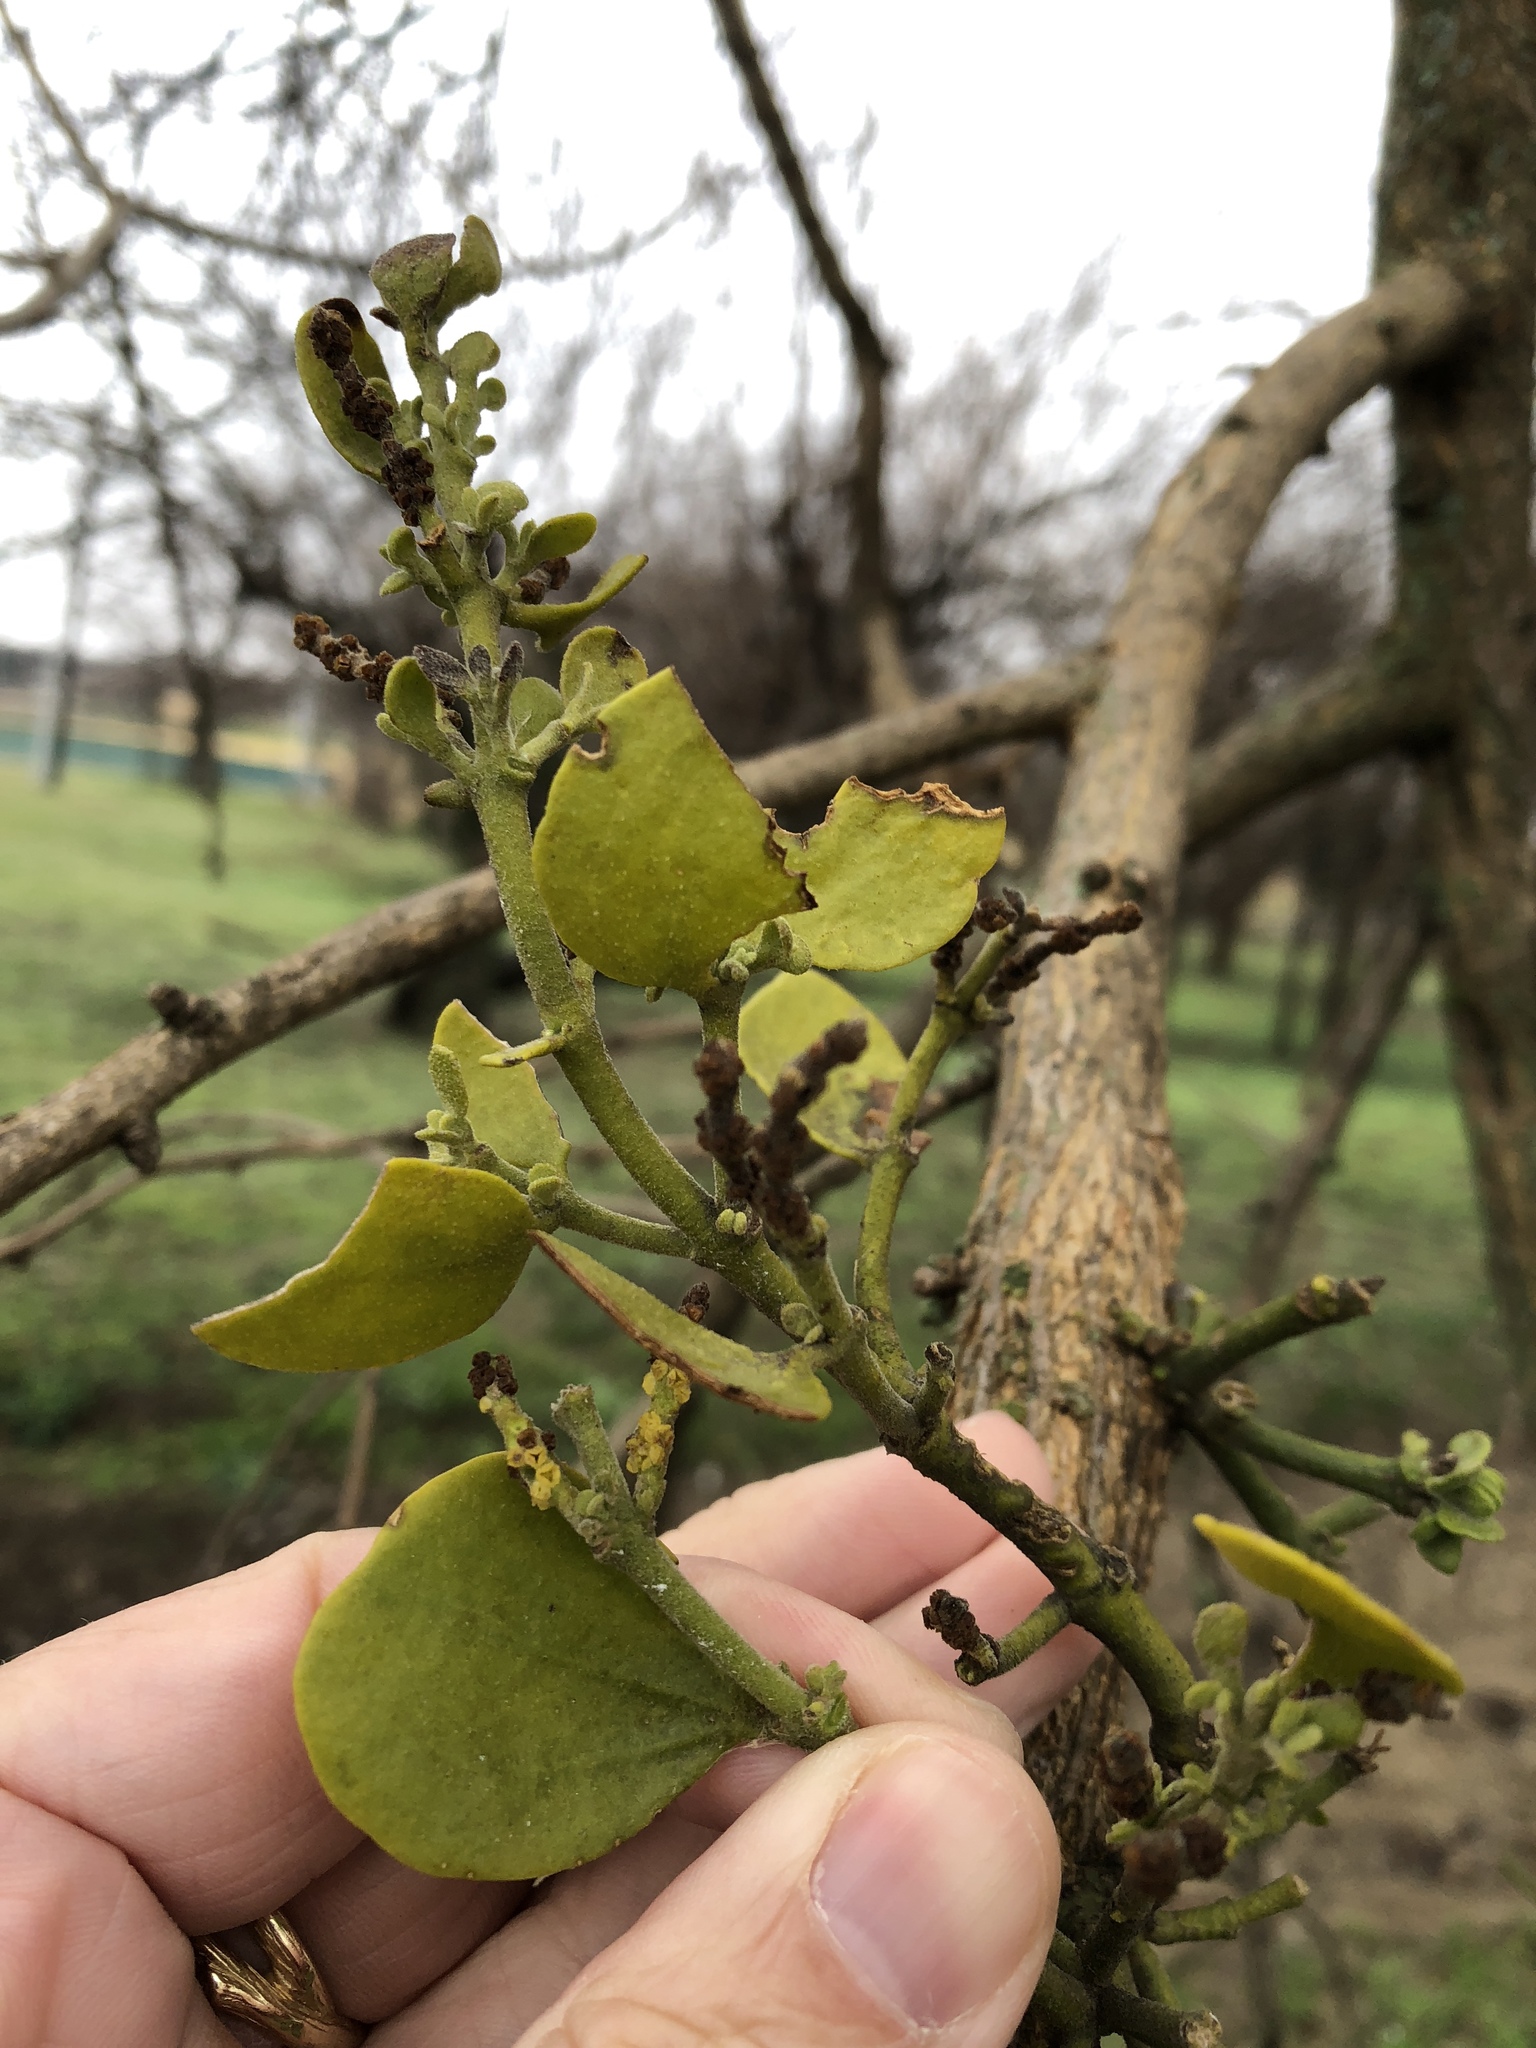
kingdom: Plantae
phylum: Tracheophyta
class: Magnoliopsida
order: Santalales
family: Viscaceae
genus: Phoradendron
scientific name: Phoradendron leucarpum
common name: Pacific mistletoe
